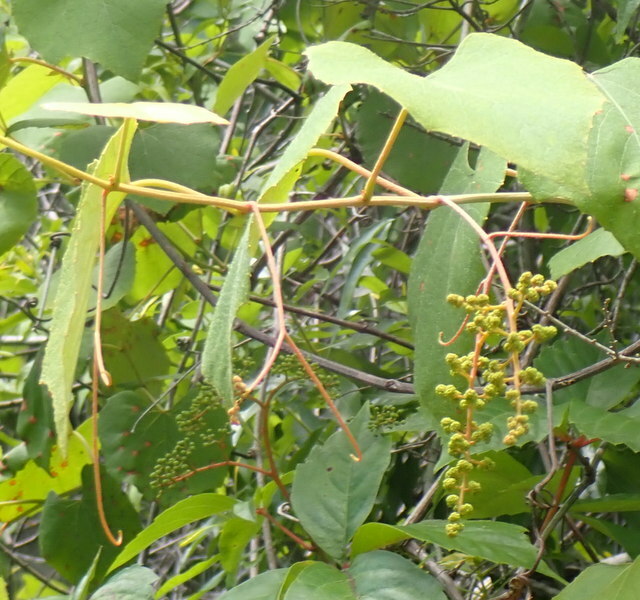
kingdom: Plantae
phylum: Tracheophyta
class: Magnoliopsida
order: Vitales
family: Vitaceae
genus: Vitis
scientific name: Vitis vulpina
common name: Frost grape
